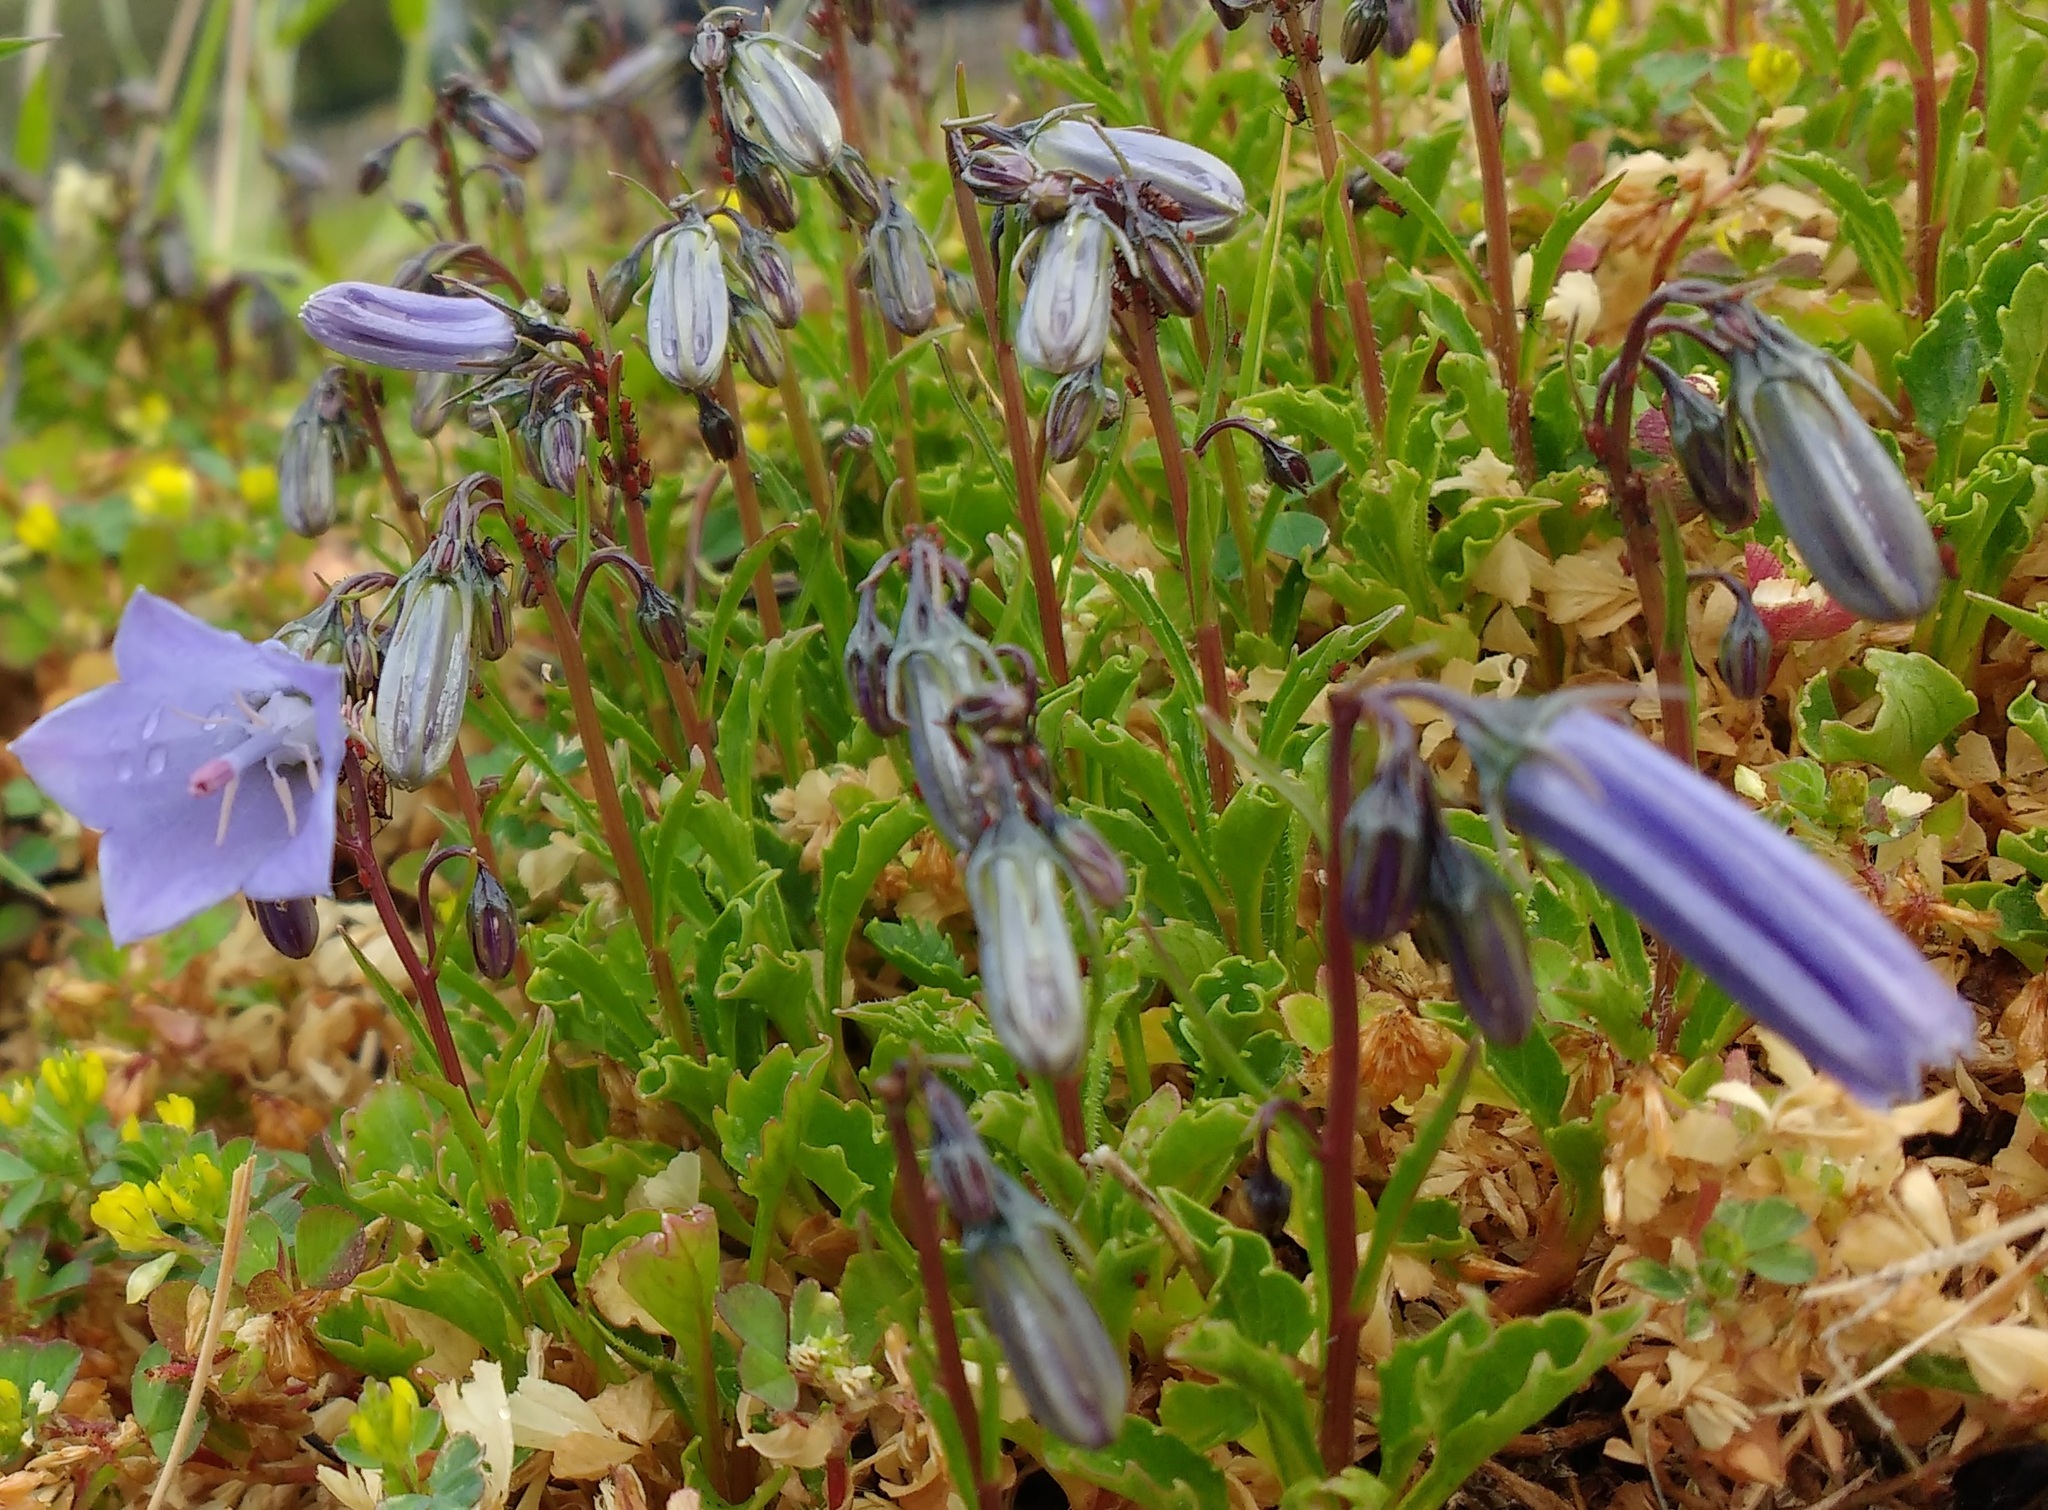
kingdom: Plantae
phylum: Tracheophyta
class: Magnoliopsida
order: Asterales
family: Campanulaceae
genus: Campanula
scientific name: Campanula rotundifolia
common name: Harebell
